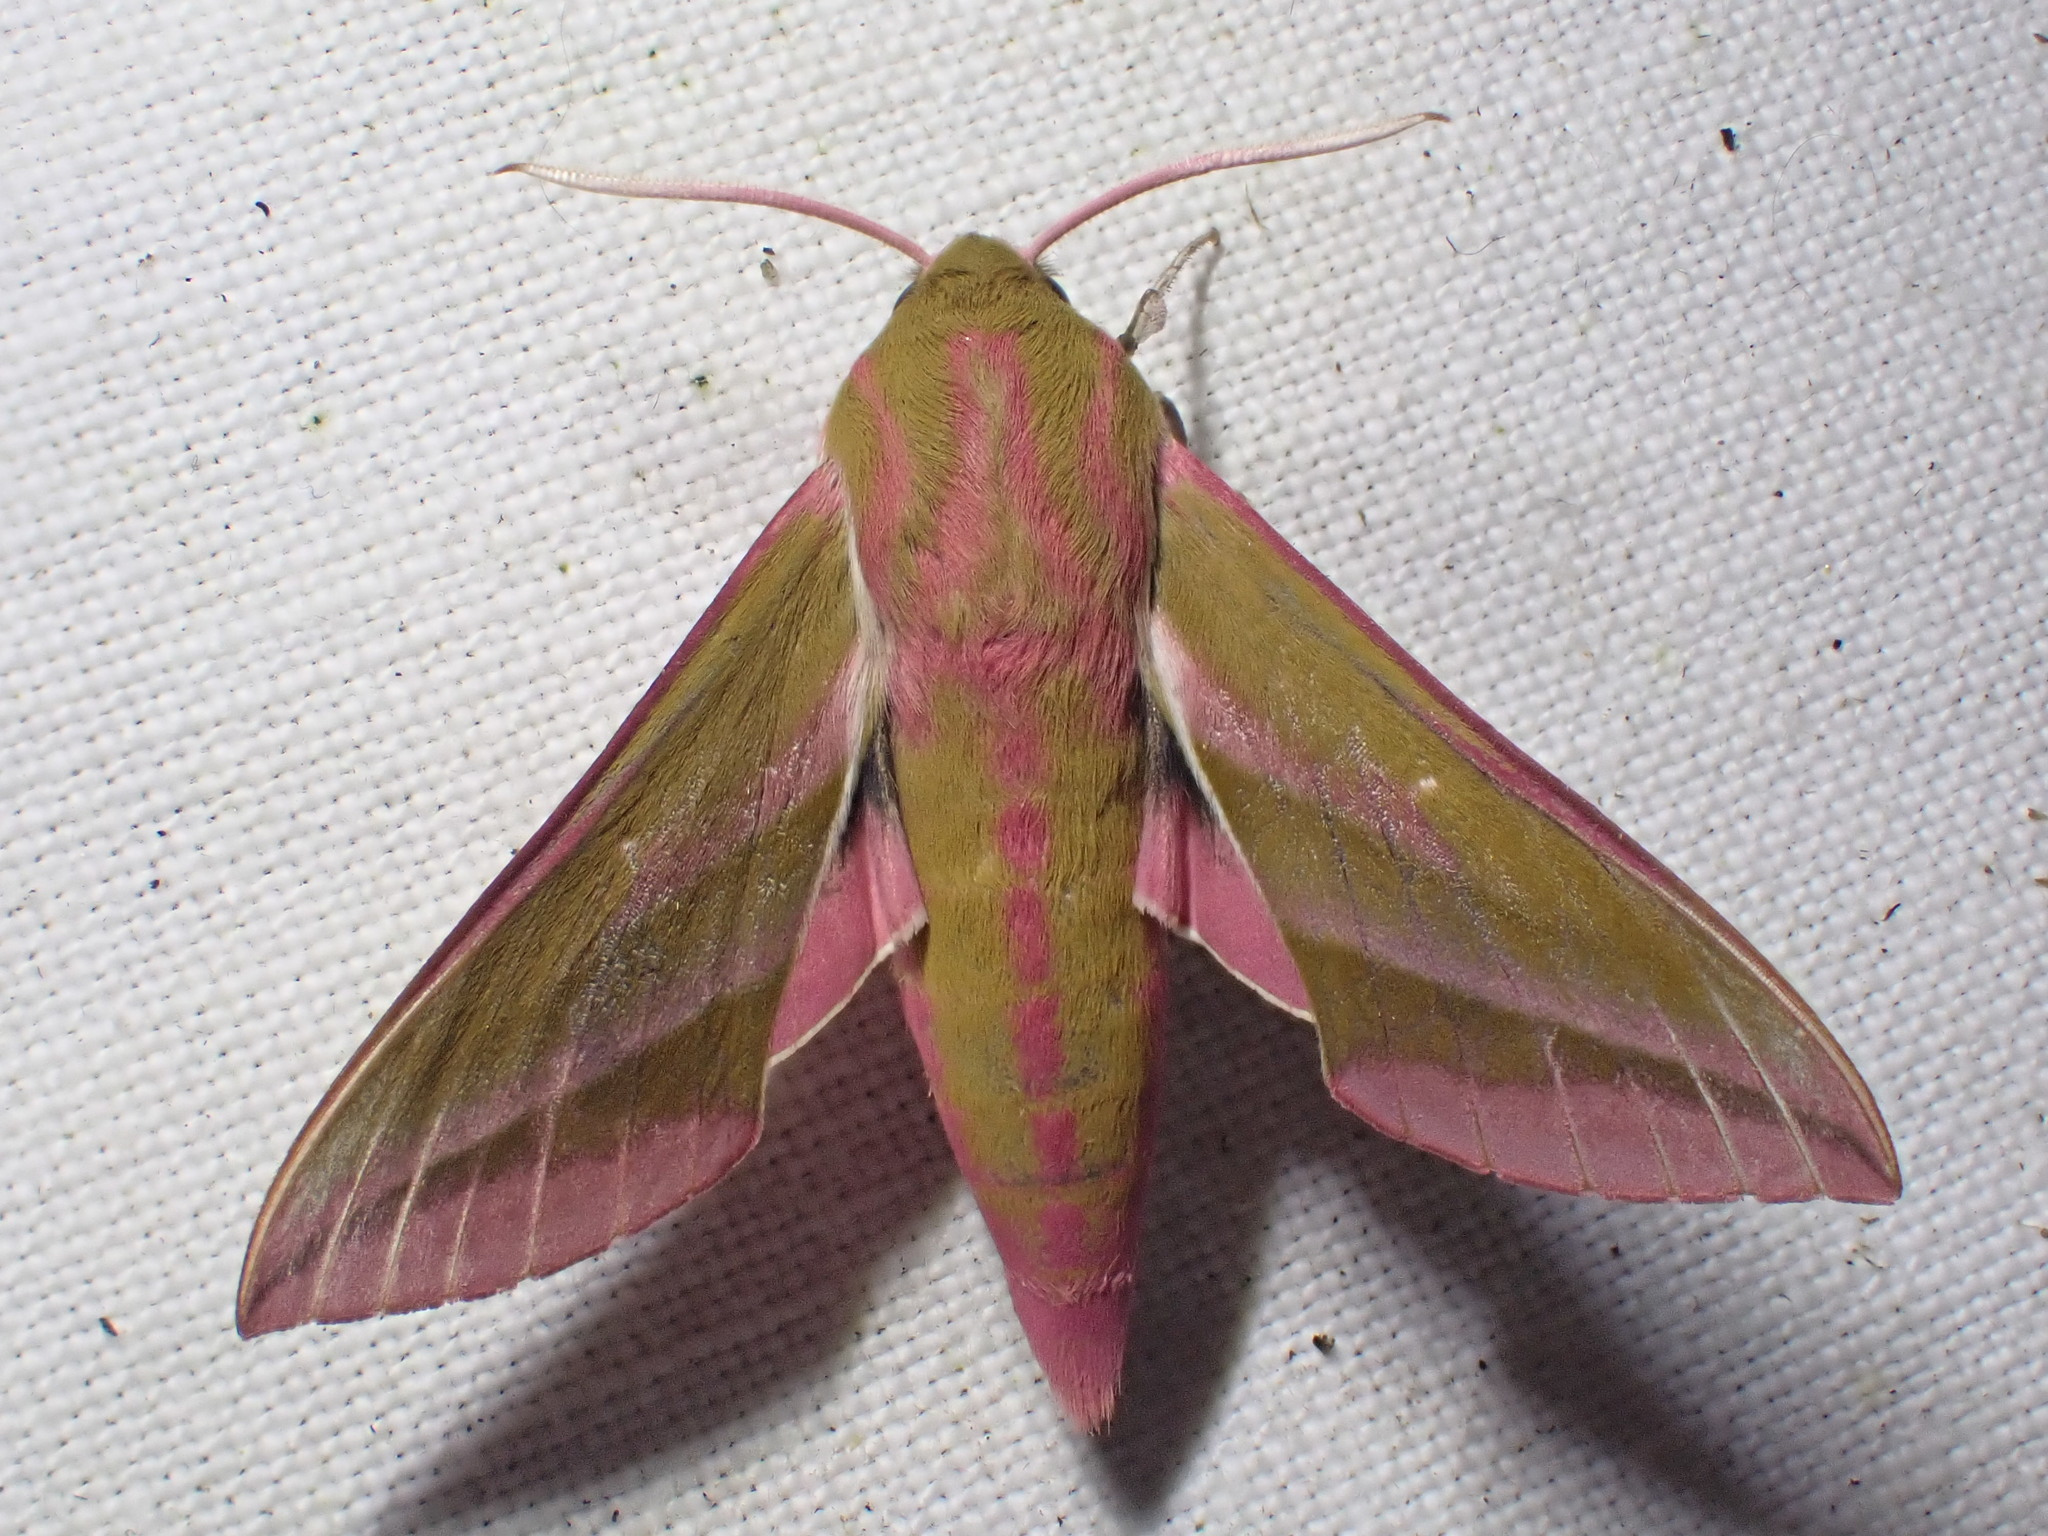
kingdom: Animalia
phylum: Arthropoda
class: Insecta
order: Lepidoptera
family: Sphingidae
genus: Deilephila
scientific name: Deilephila elpenor
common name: Elephant hawk-moth
